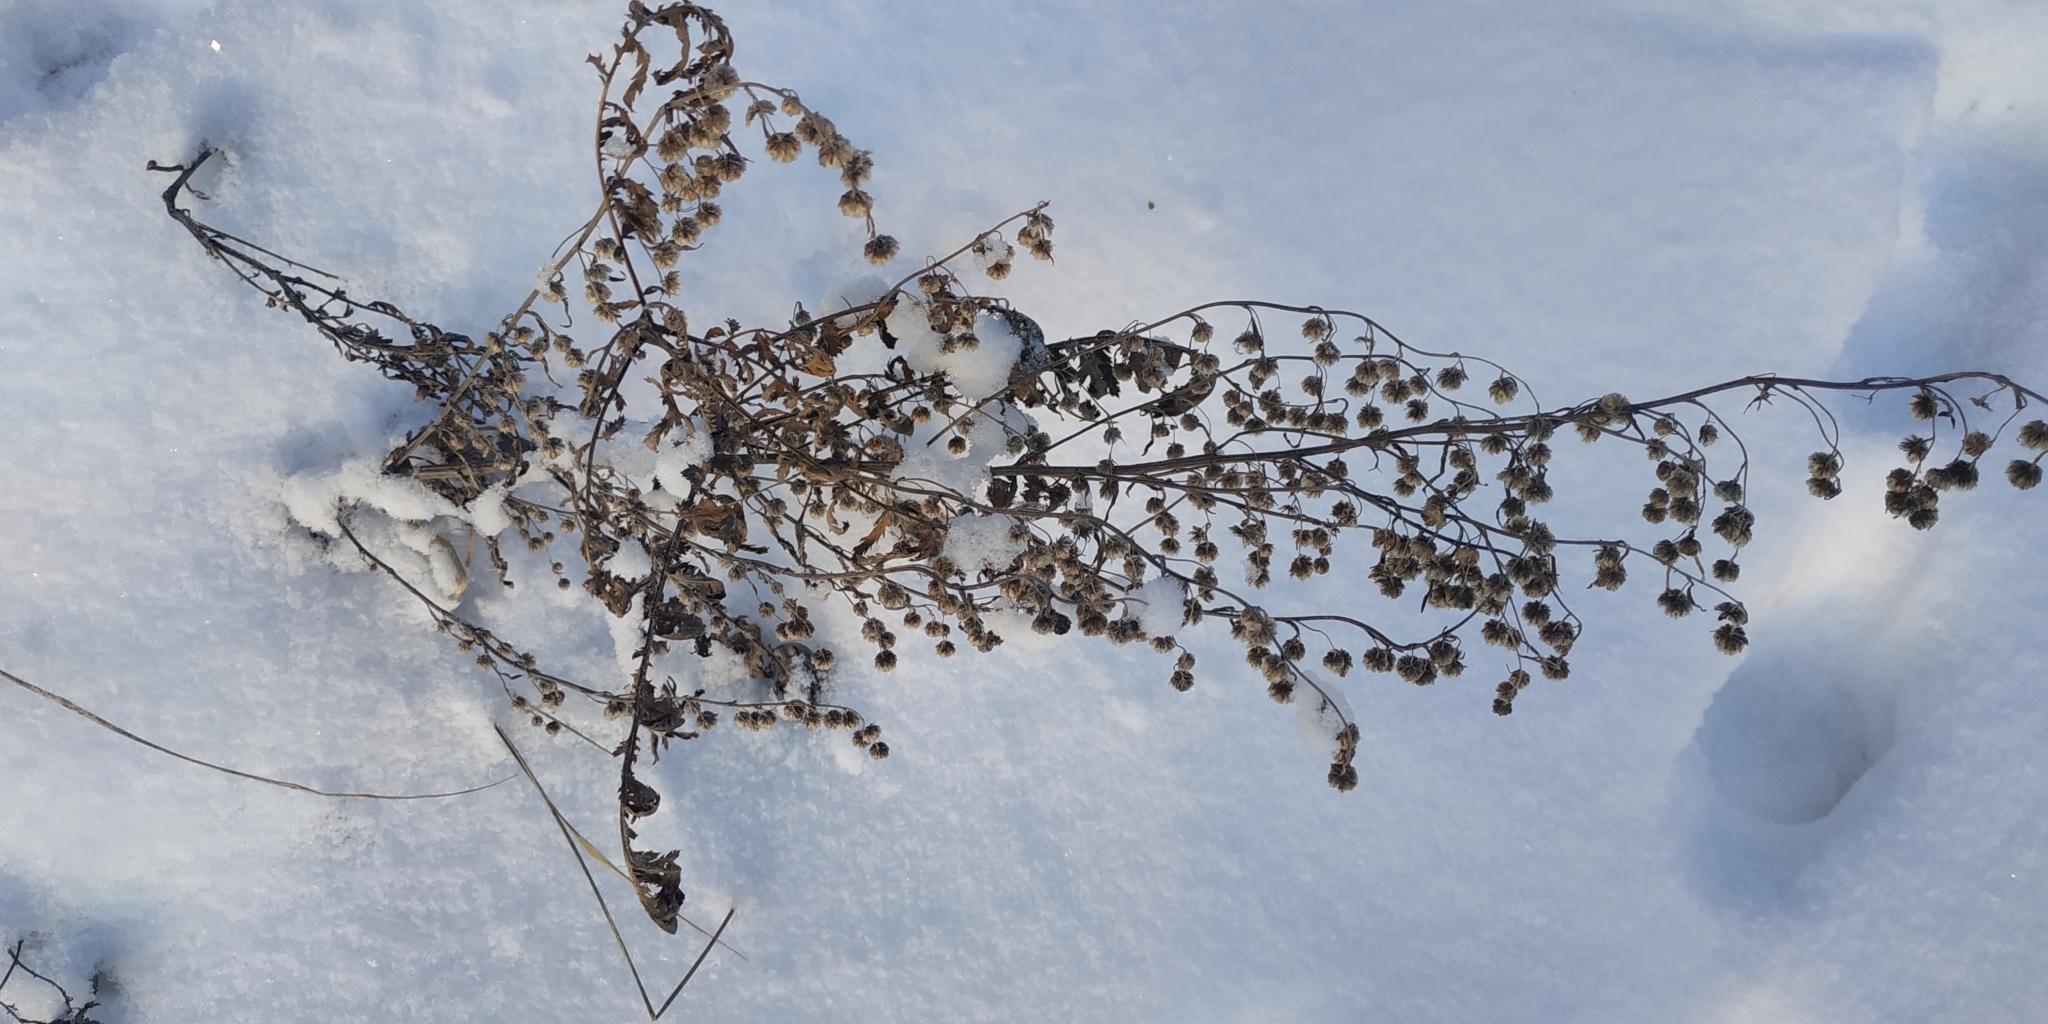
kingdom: Plantae
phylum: Tracheophyta
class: Magnoliopsida
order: Asterales
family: Asteraceae
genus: Artemisia
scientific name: Artemisia vulgaris
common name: Mugwort
